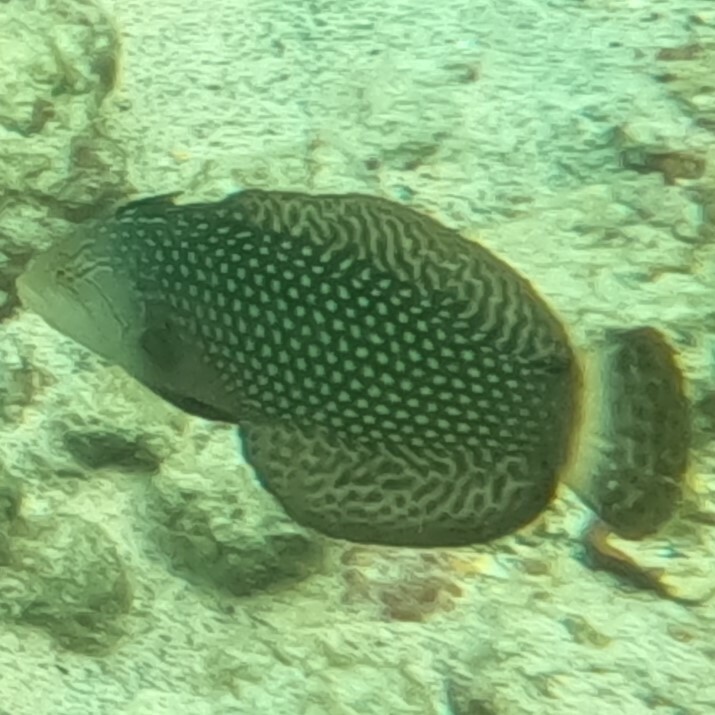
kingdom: Animalia
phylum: Chordata
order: Perciformes
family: Labridae
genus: Novaculichthys
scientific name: Novaculichthys taeniourus
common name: Rockmover wrasse
